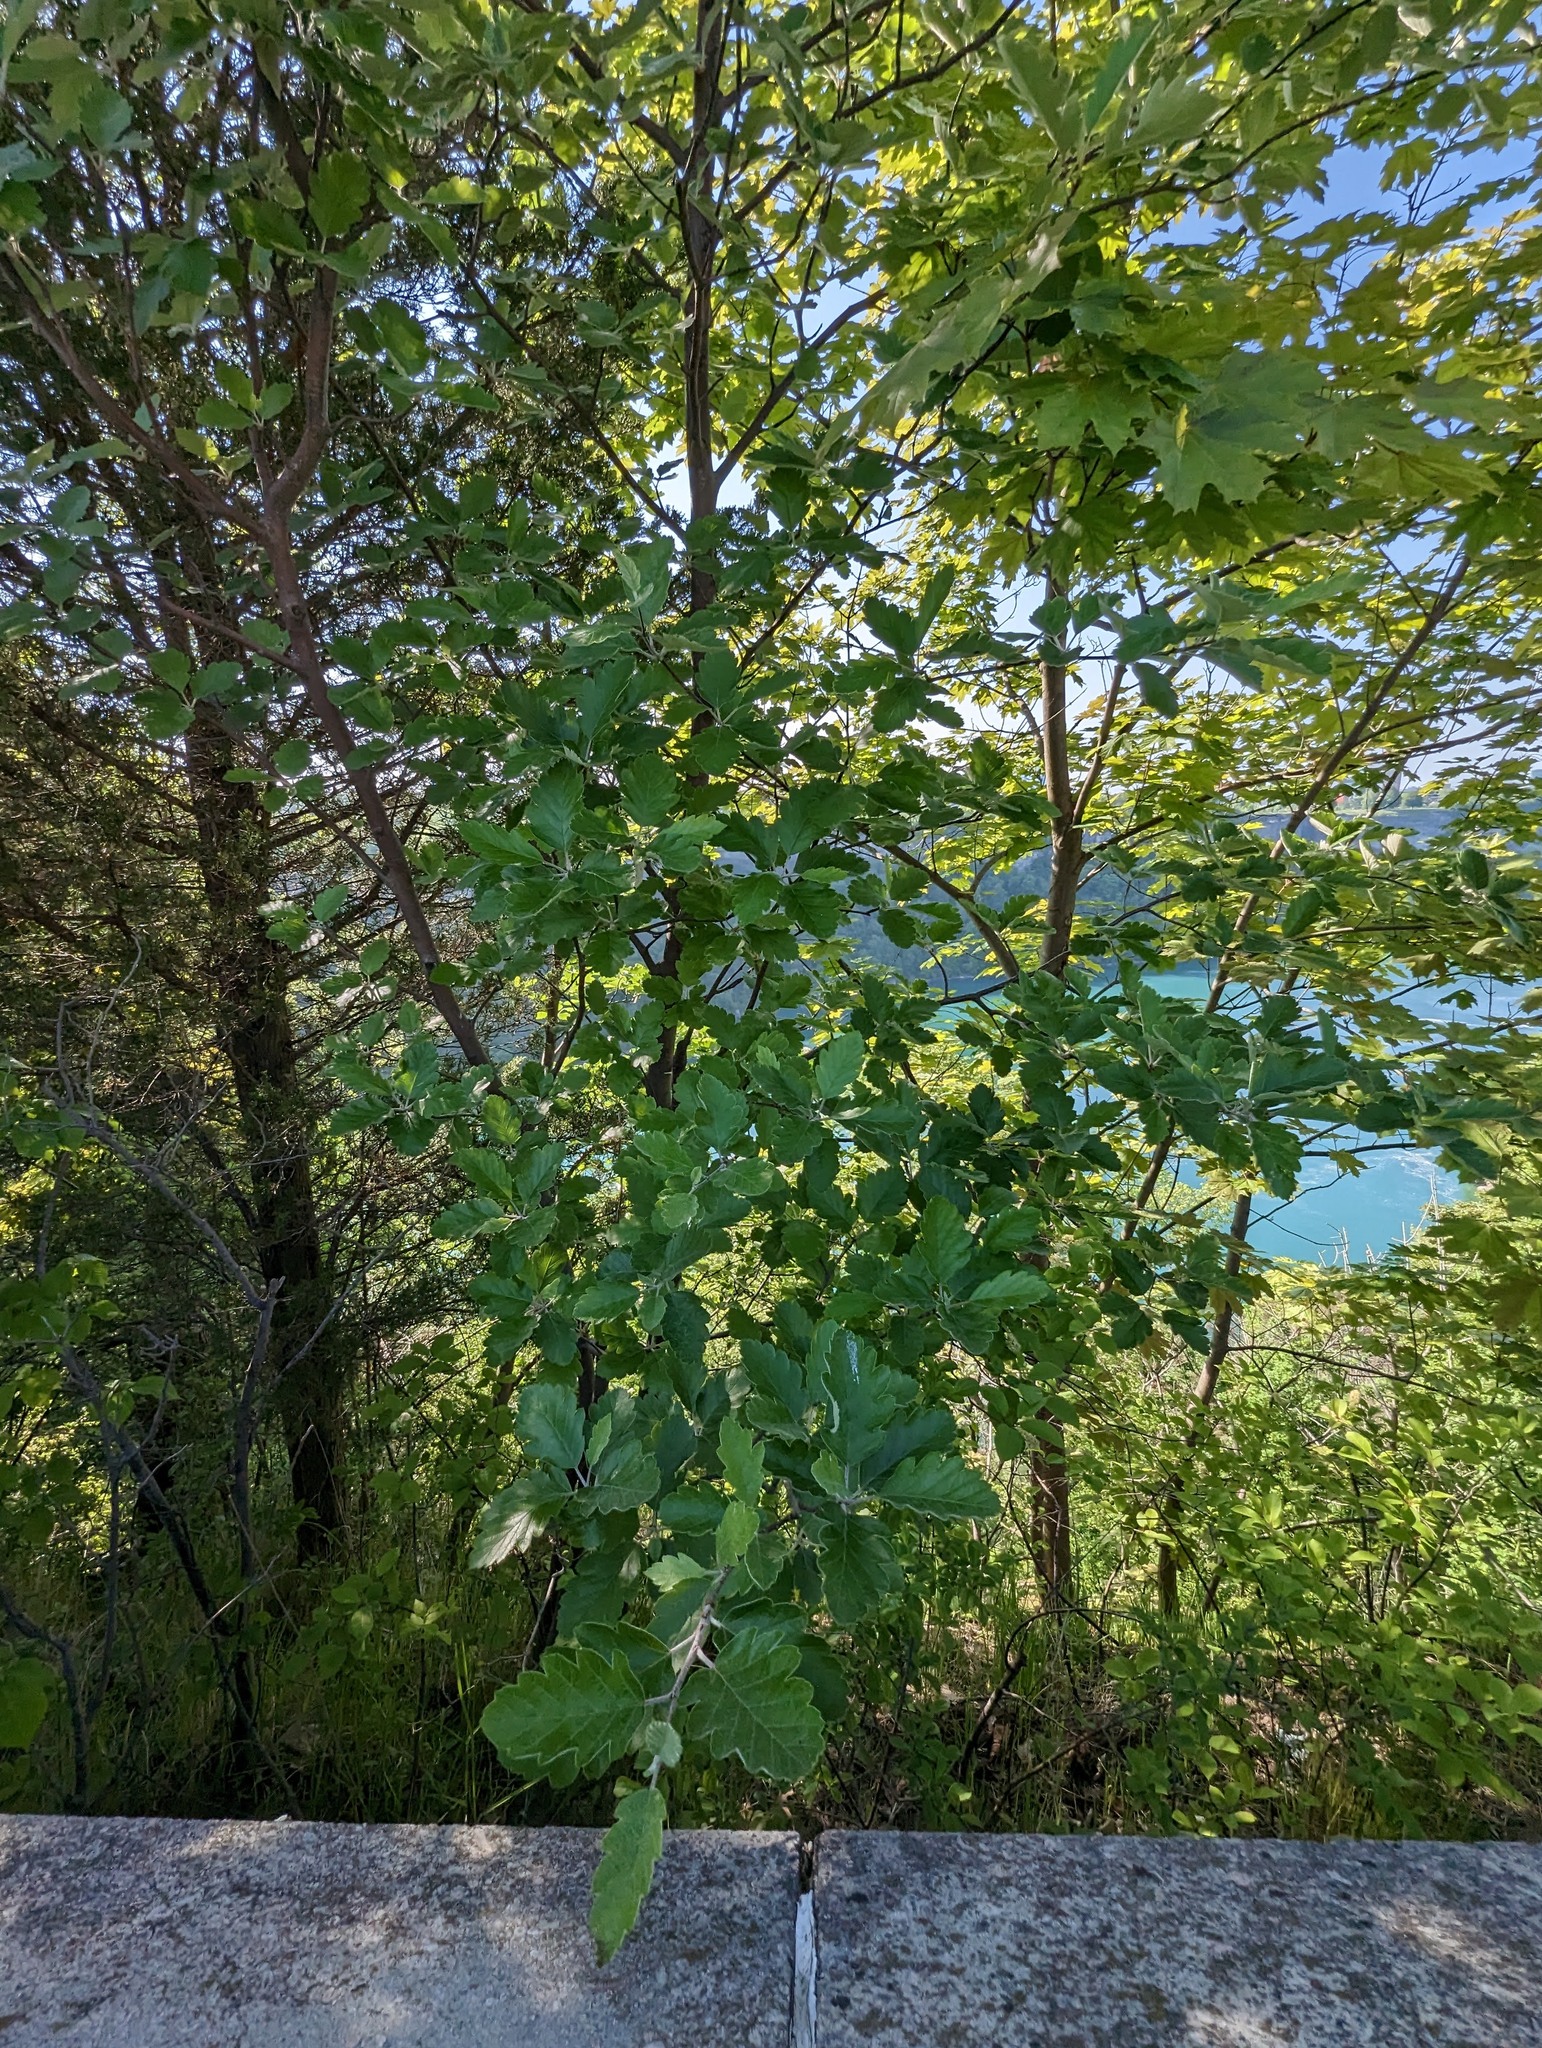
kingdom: Plantae
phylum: Tracheophyta
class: Magnoliopsida
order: Rosales
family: Rosaceae
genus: Scandosorbus
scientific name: Scandosorbus intermedia
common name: Swedish whitebeam
